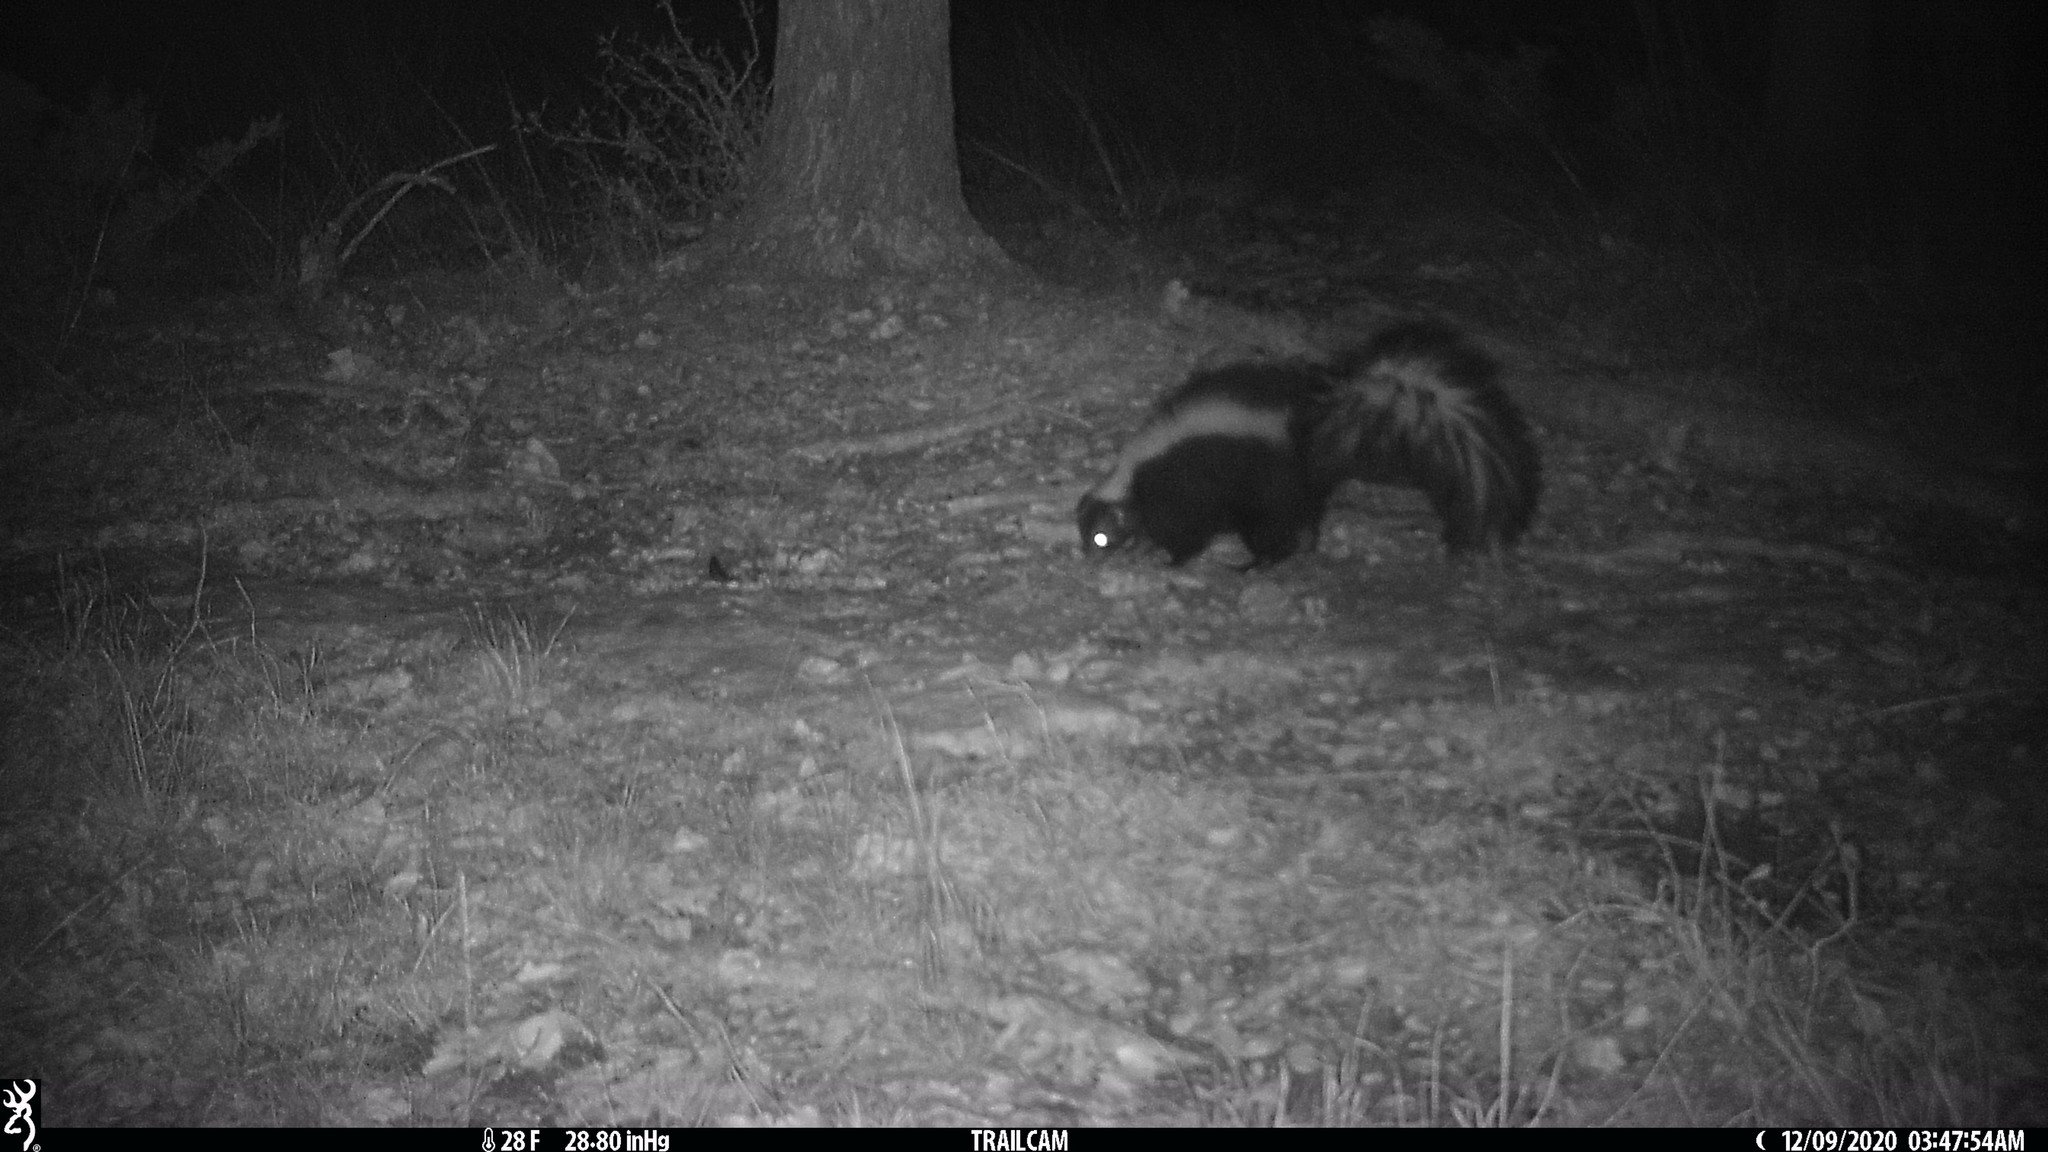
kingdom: Animalia
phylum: Chordata
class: Mammalia
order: Carnivora
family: Mephitidae
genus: Mephitis
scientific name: Mephitis mephitis
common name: Striped skunk
